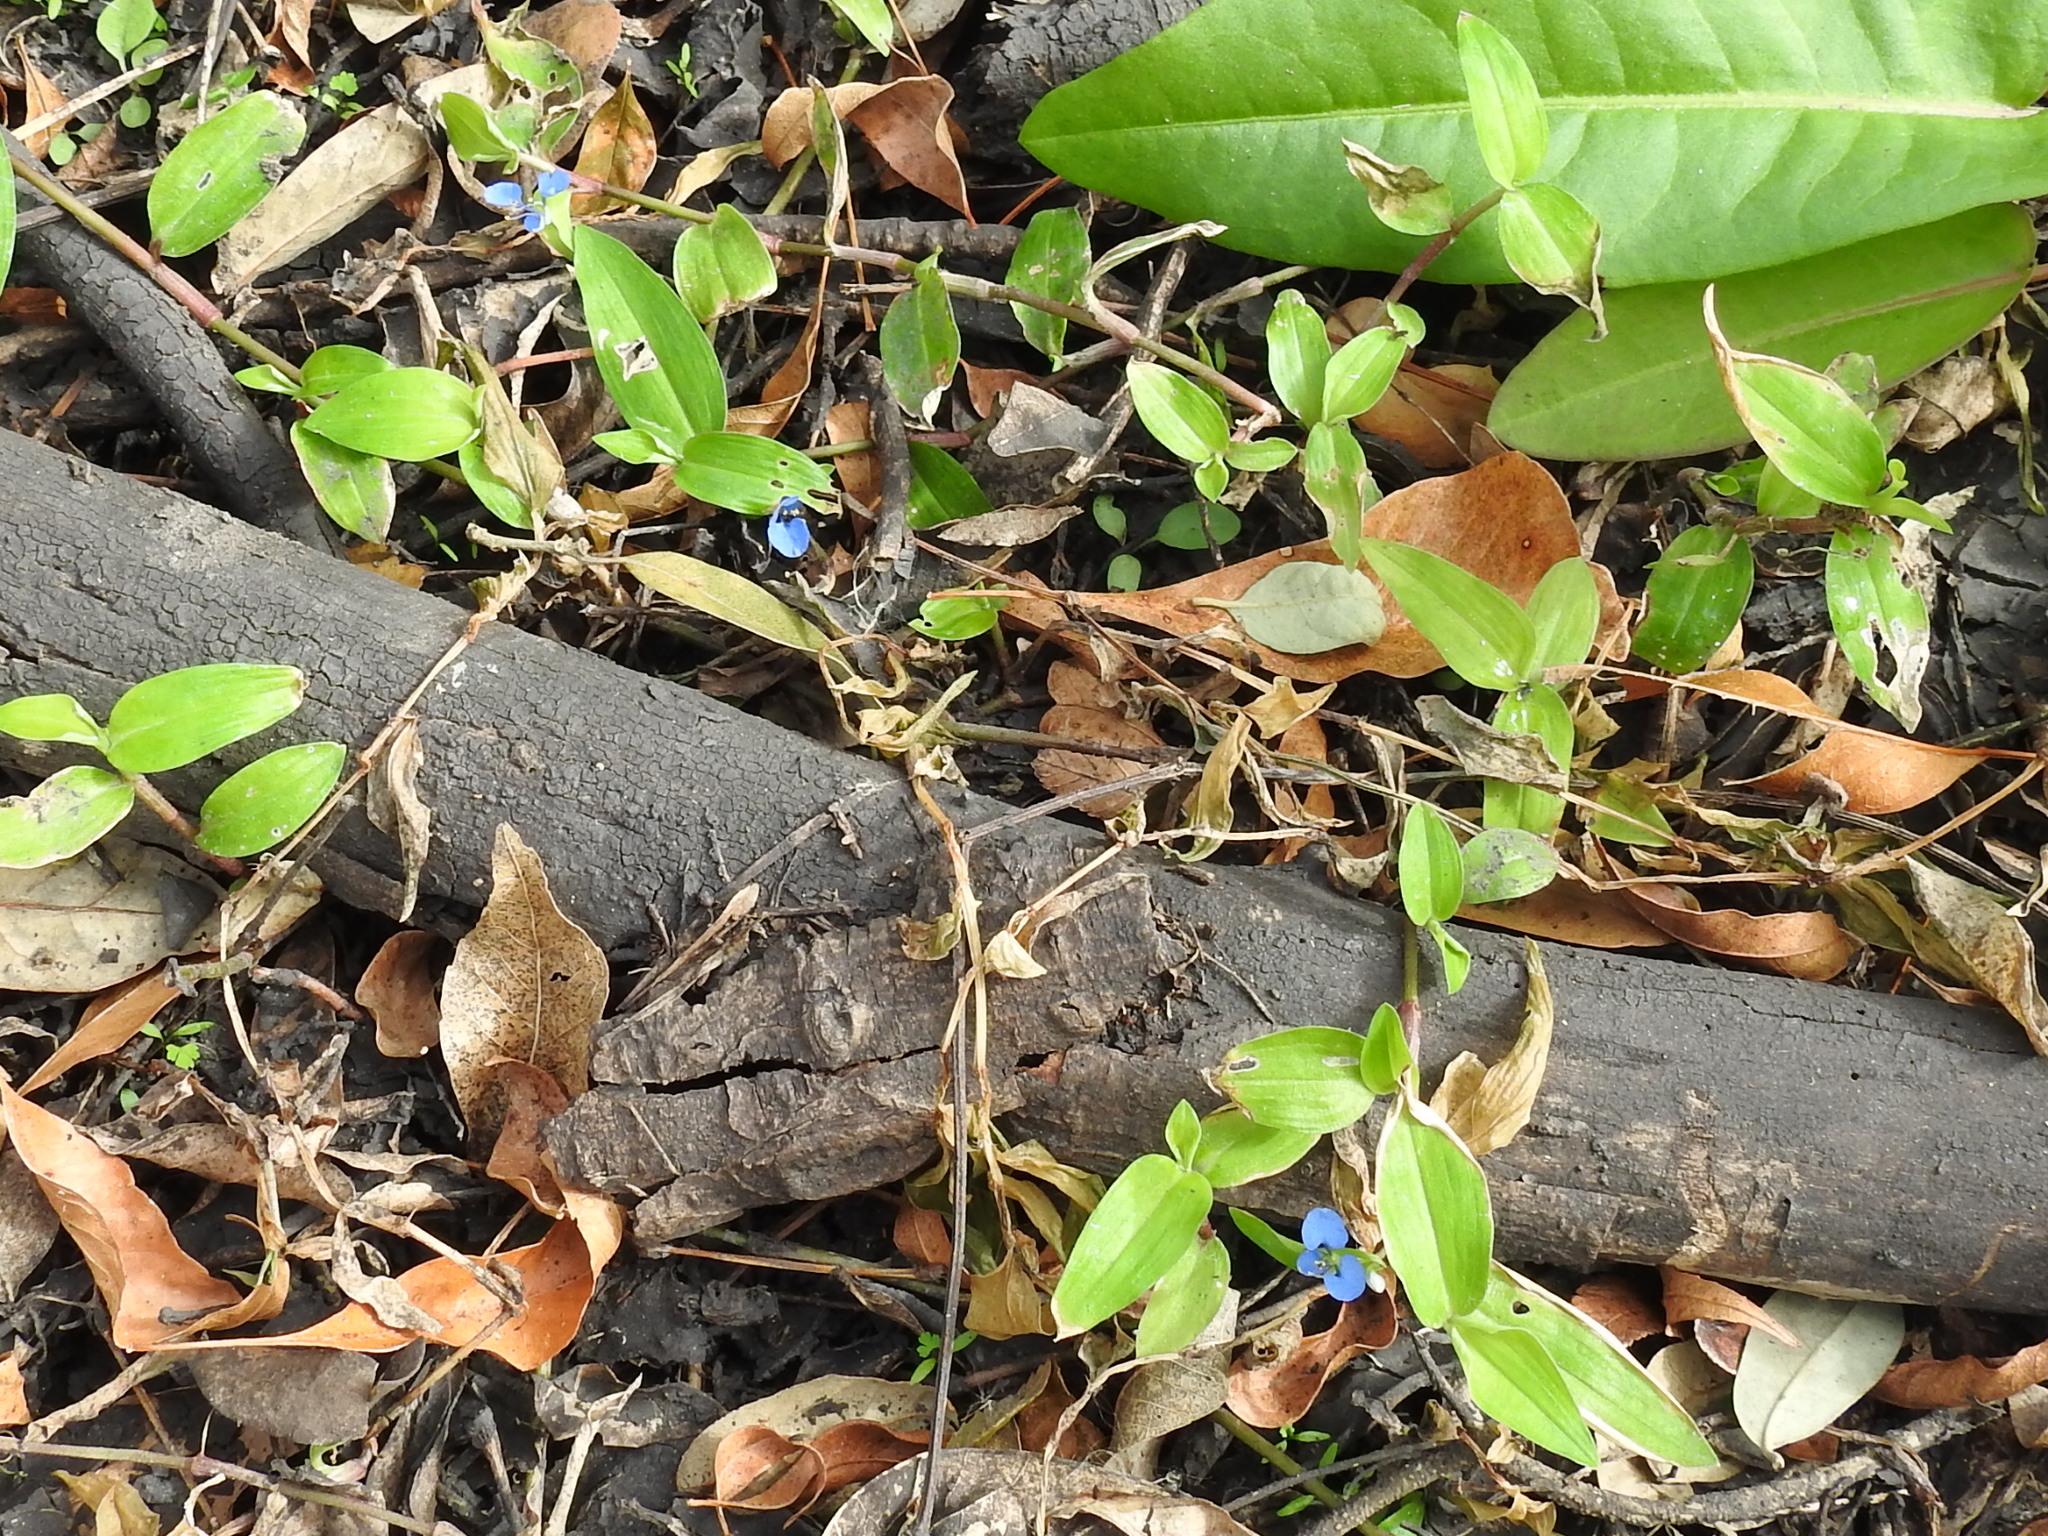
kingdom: Plantae
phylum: Tracheophyta
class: Liliopsida
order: Commelinales
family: Commelinaceae
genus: Commelina
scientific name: Commelina diffusa
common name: Climbing dayflower
